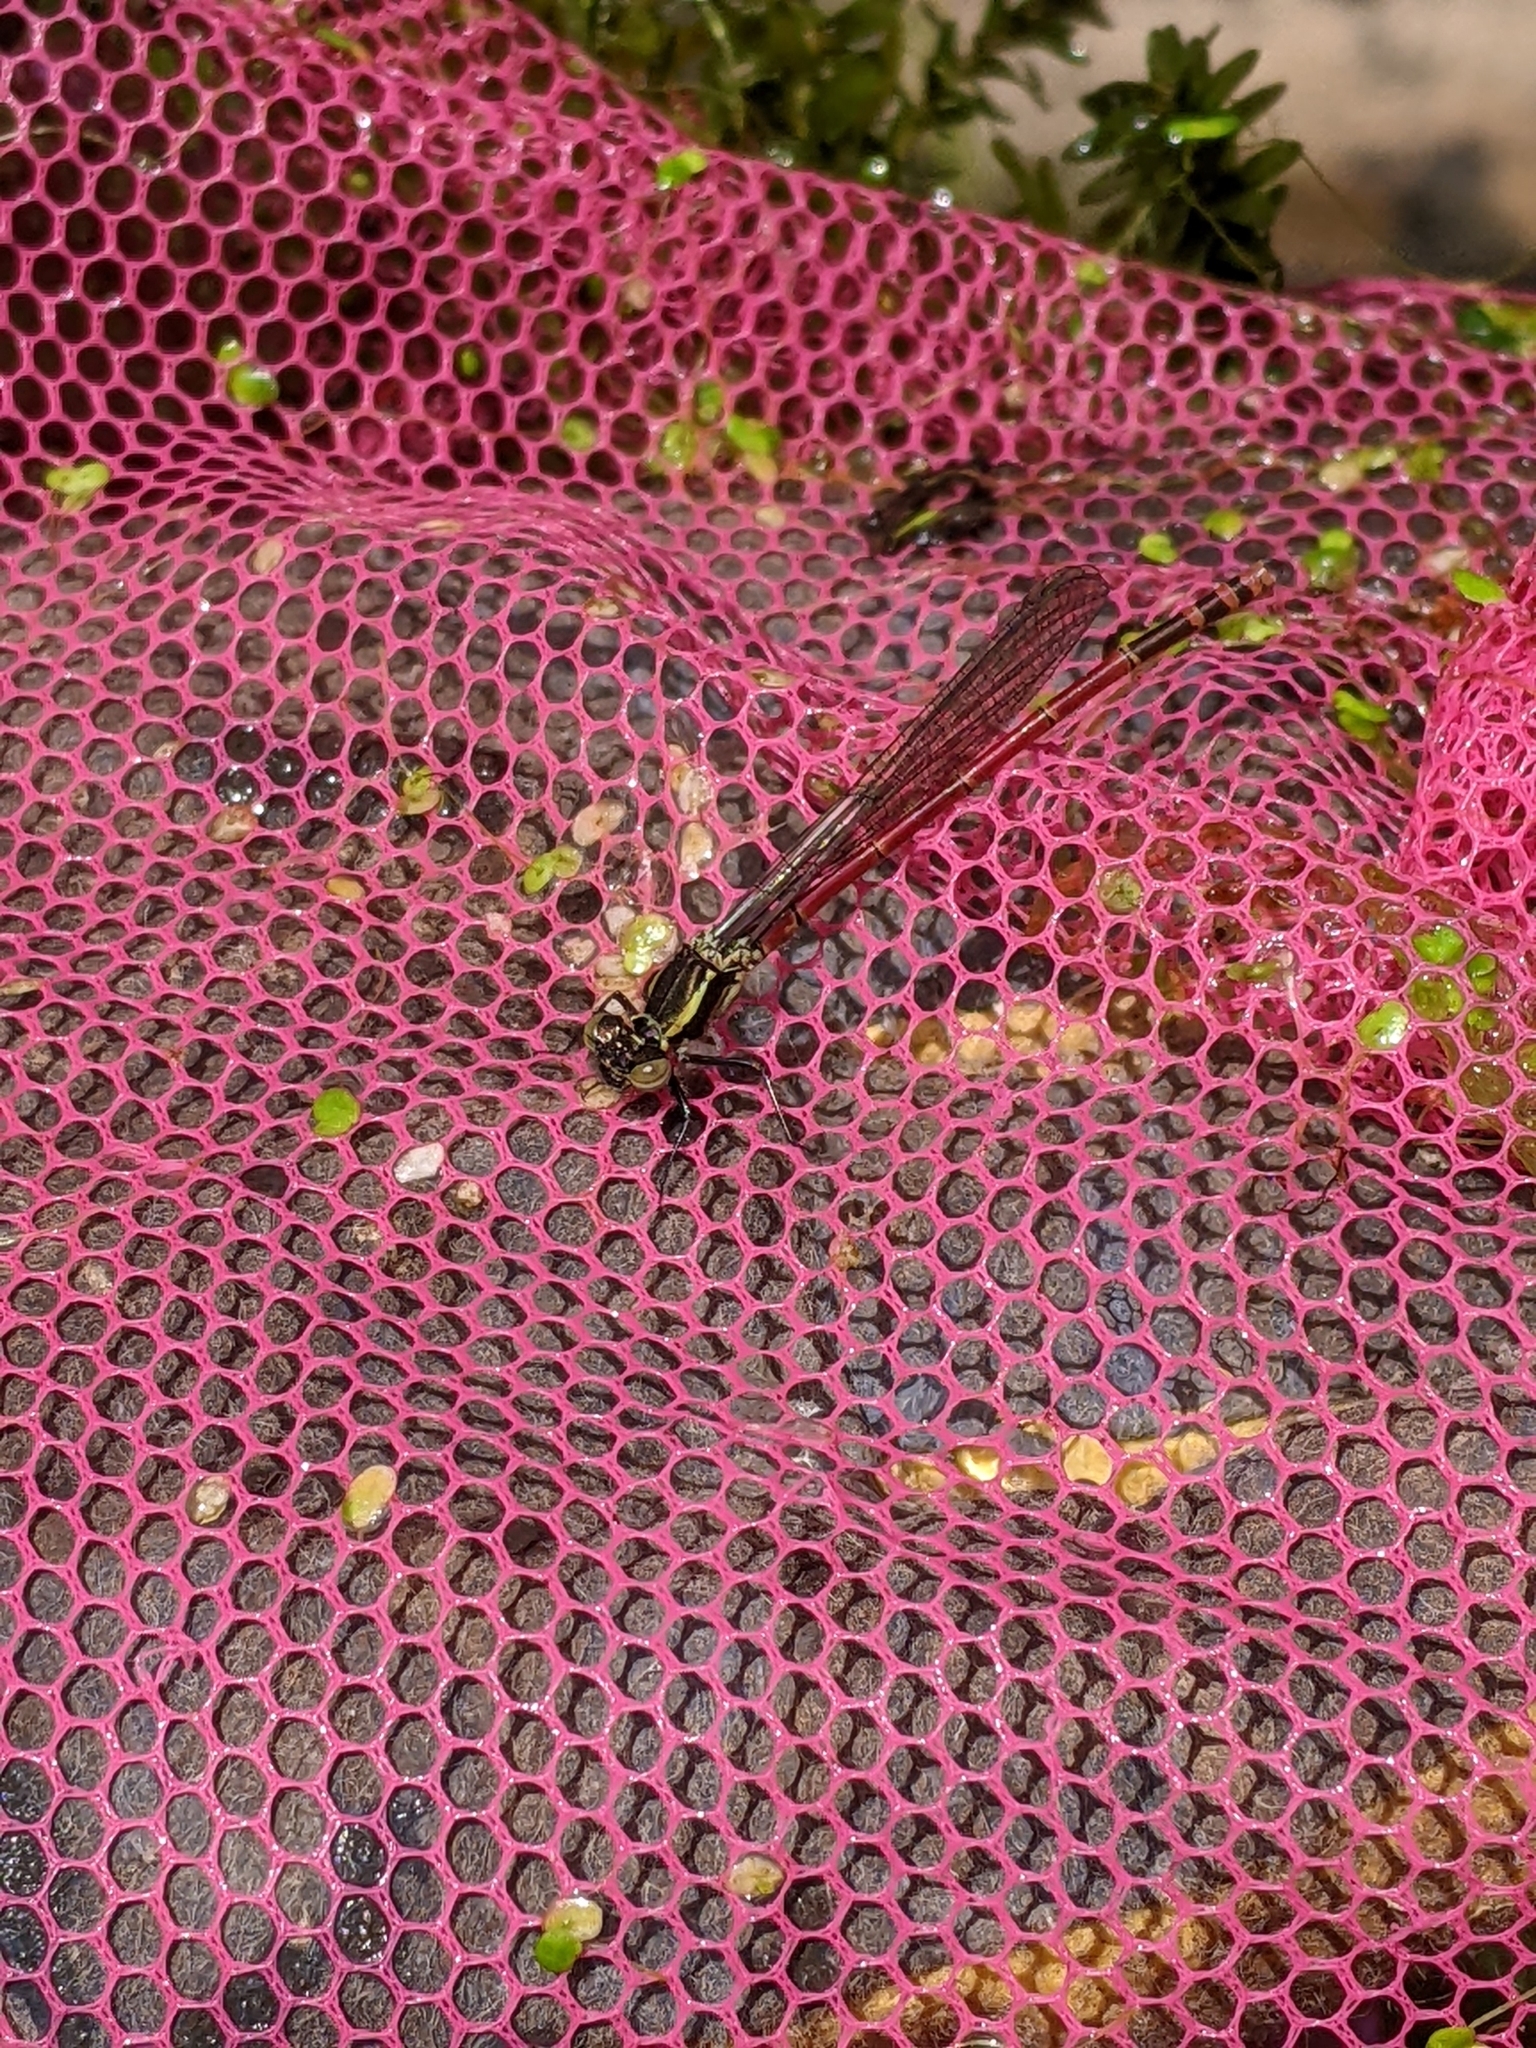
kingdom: Animalia
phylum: Arthropoda
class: Insecta
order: Odonata
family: Coenagrionidae
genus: Pyrrhosoma
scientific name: Pyrrhosoma nymphula
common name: Large red damsel
